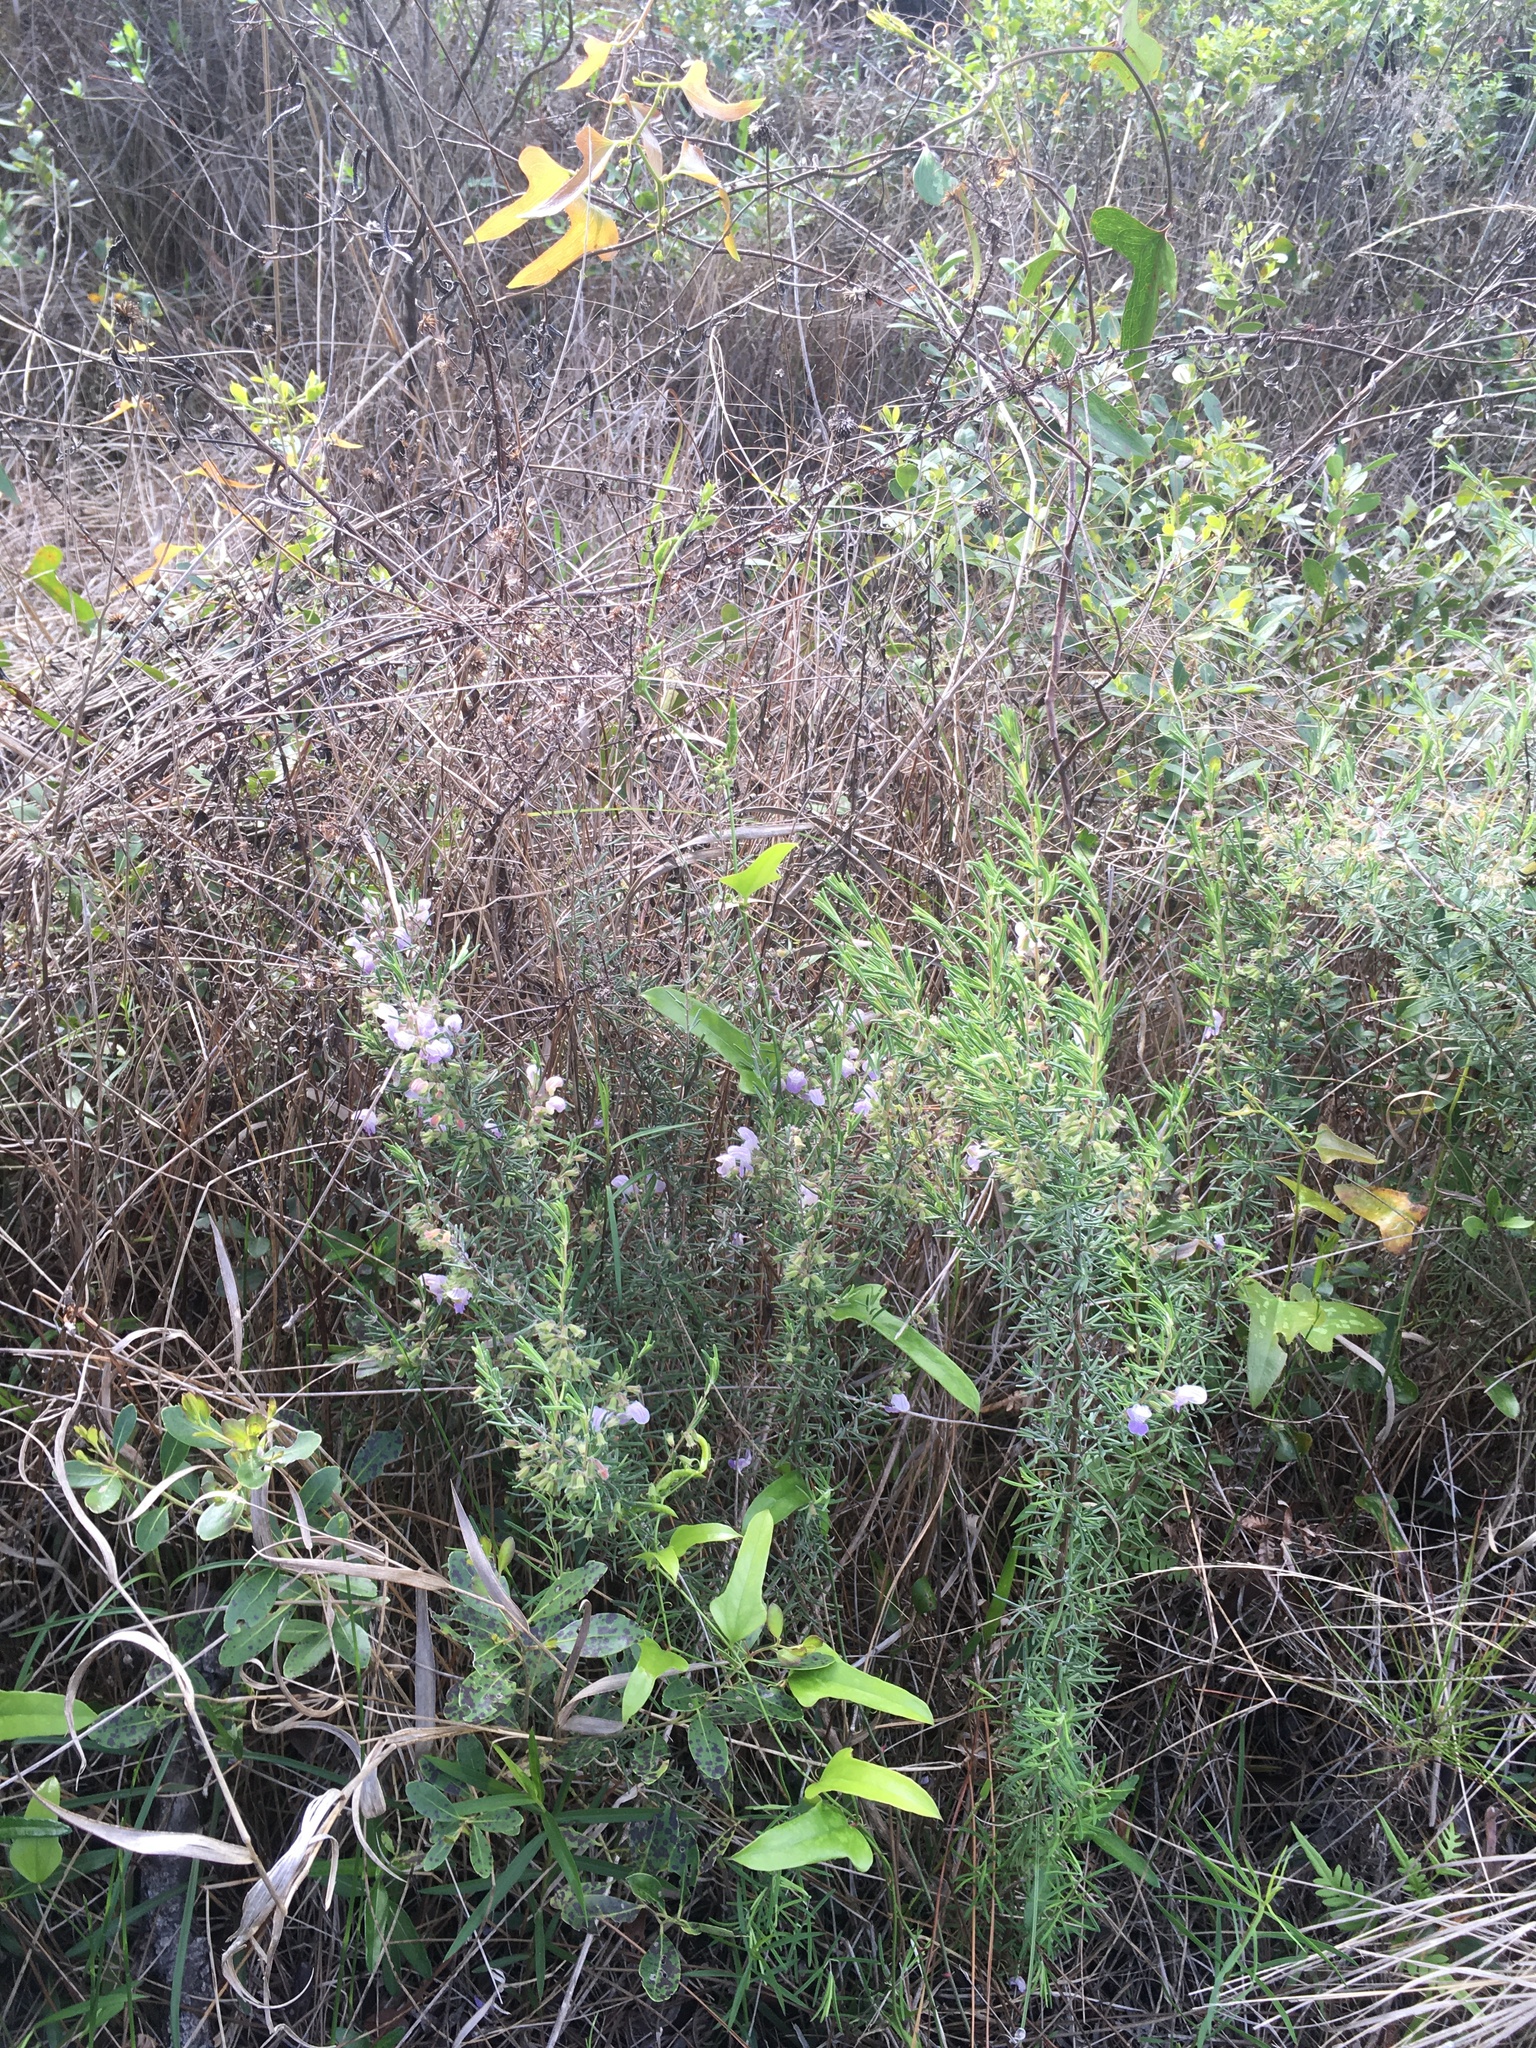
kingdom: Plantae
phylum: Tracheophyta
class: Magnoliopsida
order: Lamiales
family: Lamiaceae
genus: Conradina
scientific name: Conradina canescens
